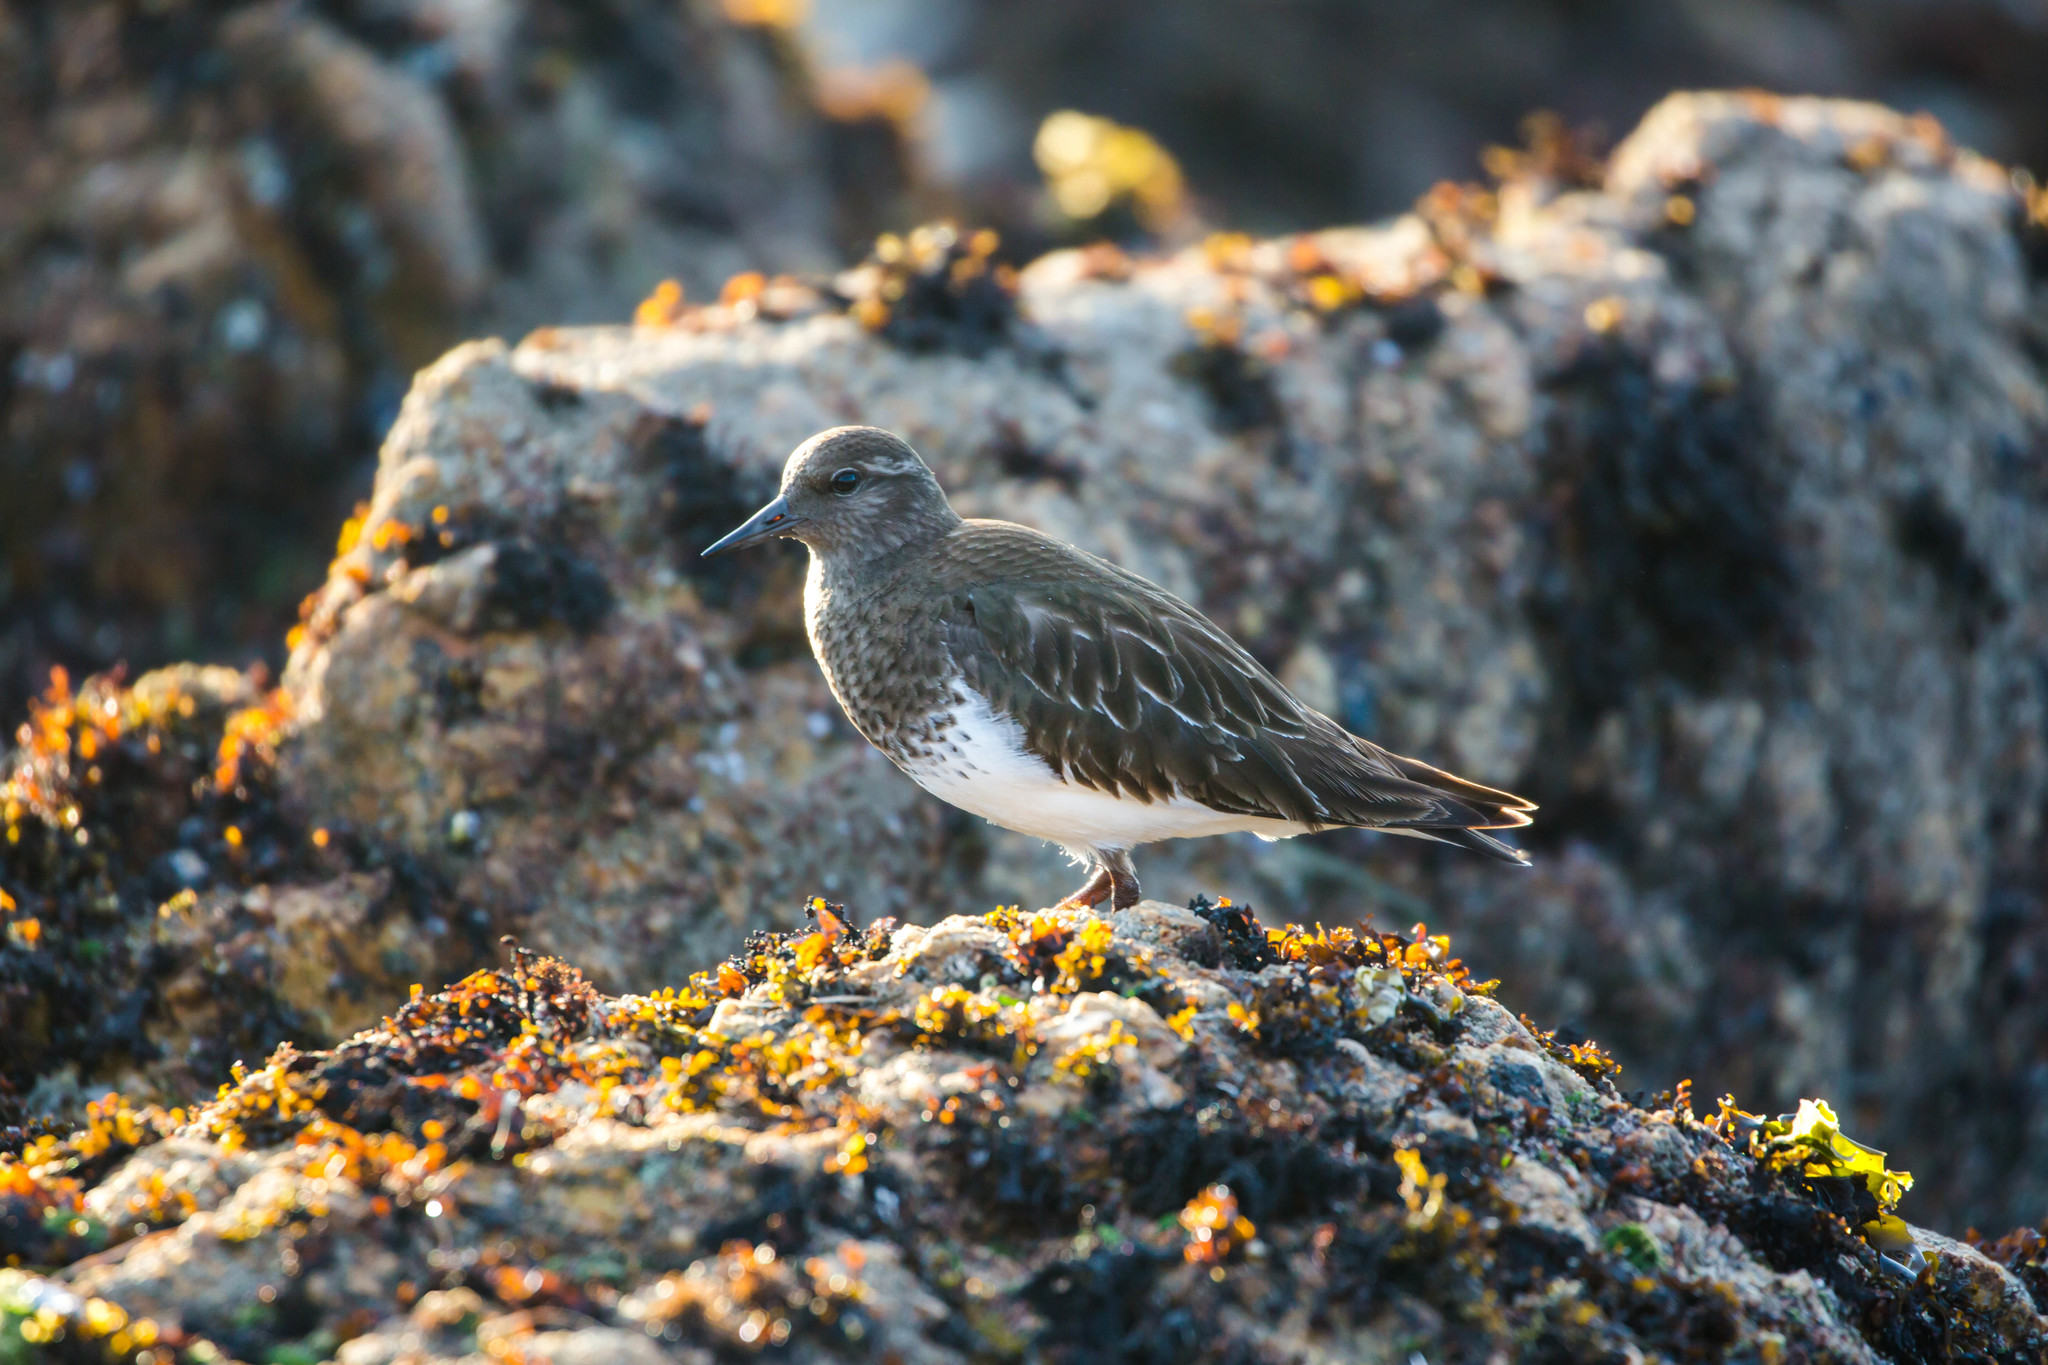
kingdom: Animalia
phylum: Chordata
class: Aves
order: Charadriiformes
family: Scolopacidae
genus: Arenaria
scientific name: Arenaria melanocephala
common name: Black turnstone
